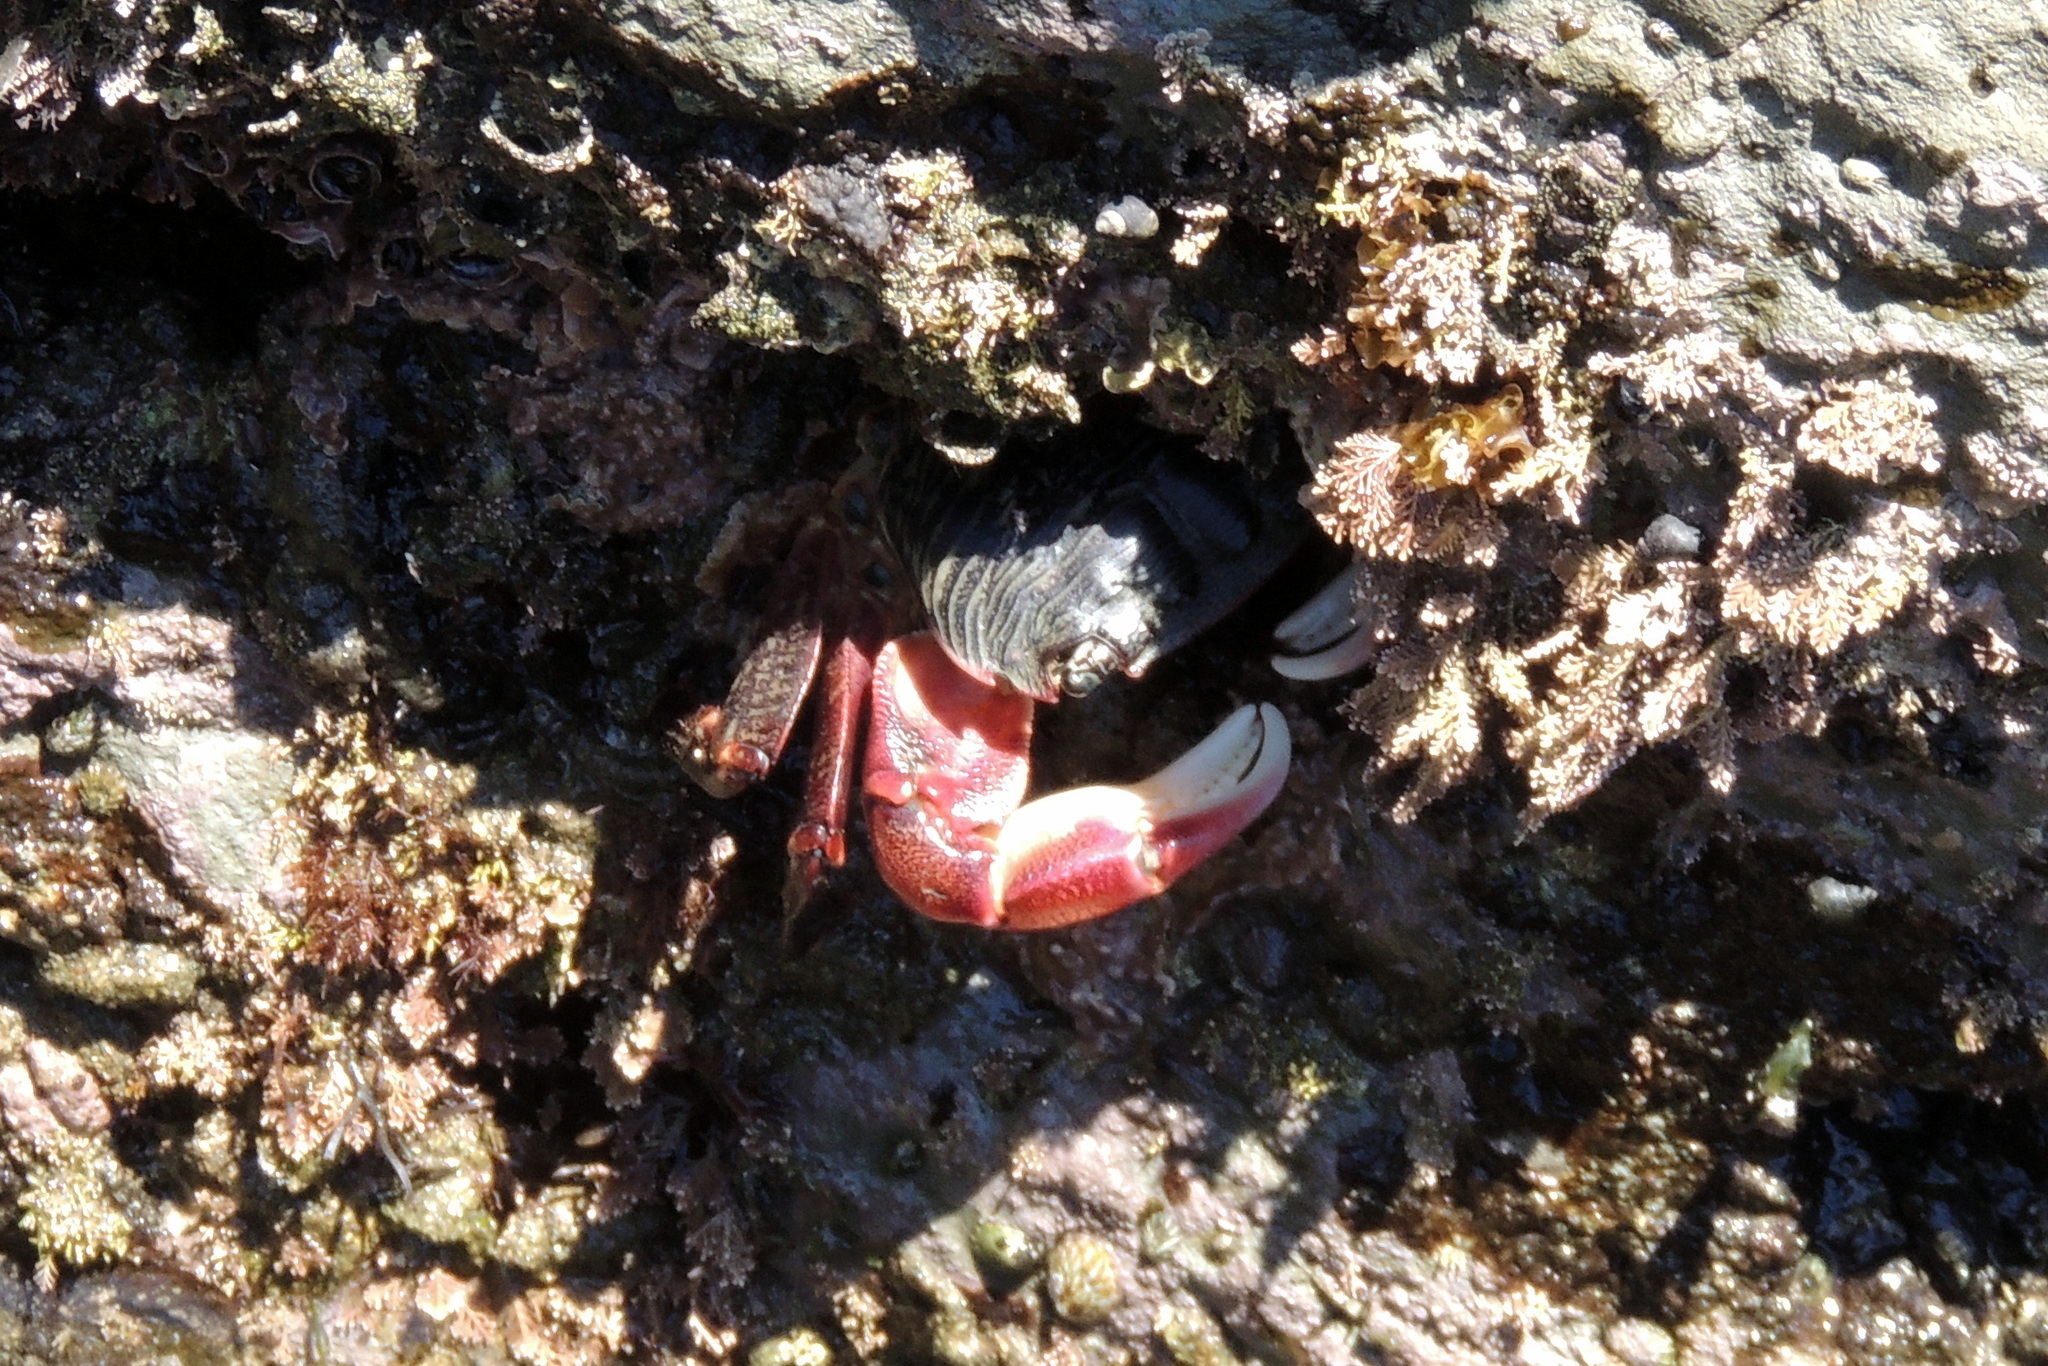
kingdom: Animalia
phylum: Arthropoda
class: Malacostraca
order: Decapoda
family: Grapsidae
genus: Pachygrapsus
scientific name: Pachygrapsus crassipes
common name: Striped shore crab
